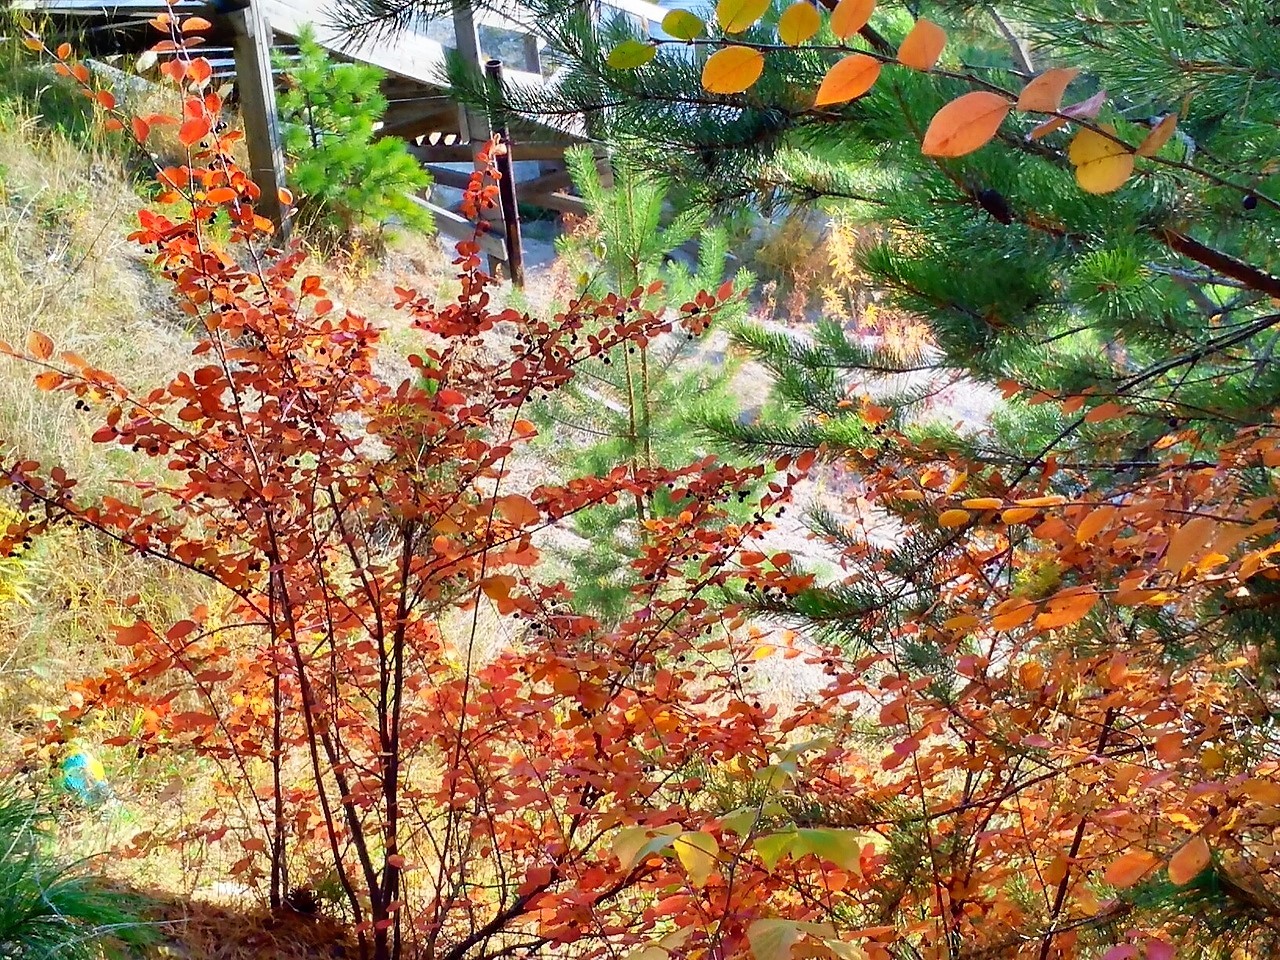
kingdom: Plantae
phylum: Tracheophyta
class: Magnoliopsida
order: Rosales
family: Rosaceae
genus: Cotoneaster
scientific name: Cotoneaster melanocarpus
